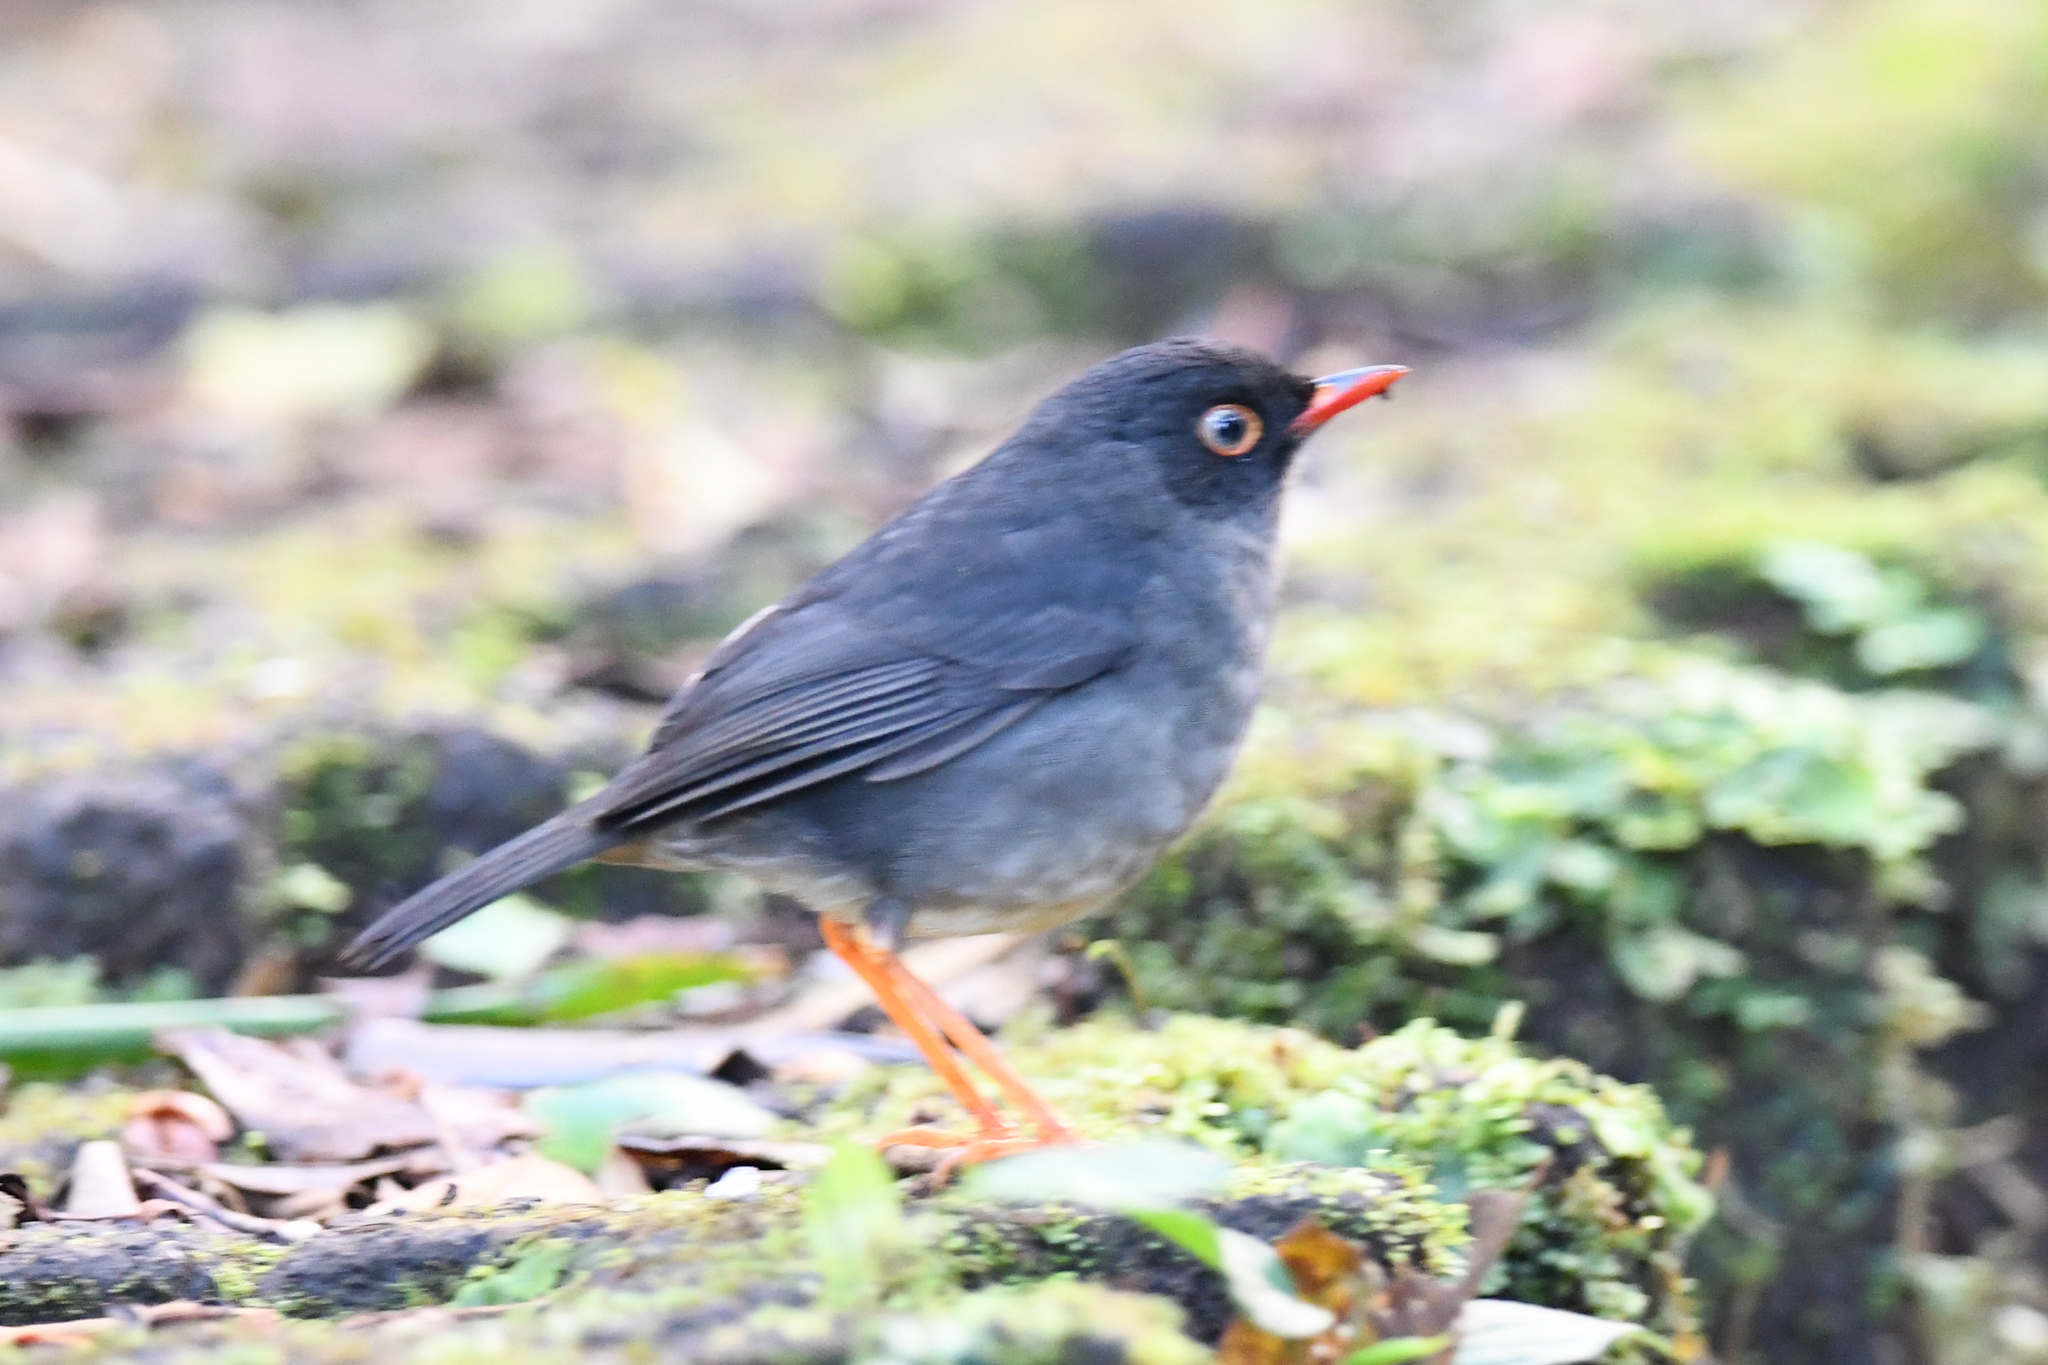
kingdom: Animalia
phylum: Chordata
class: Aves
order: Passeriformes
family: Turdidae
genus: Catharus
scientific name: Catharus fuscater
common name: Slaty-backed nightingale-thrush
